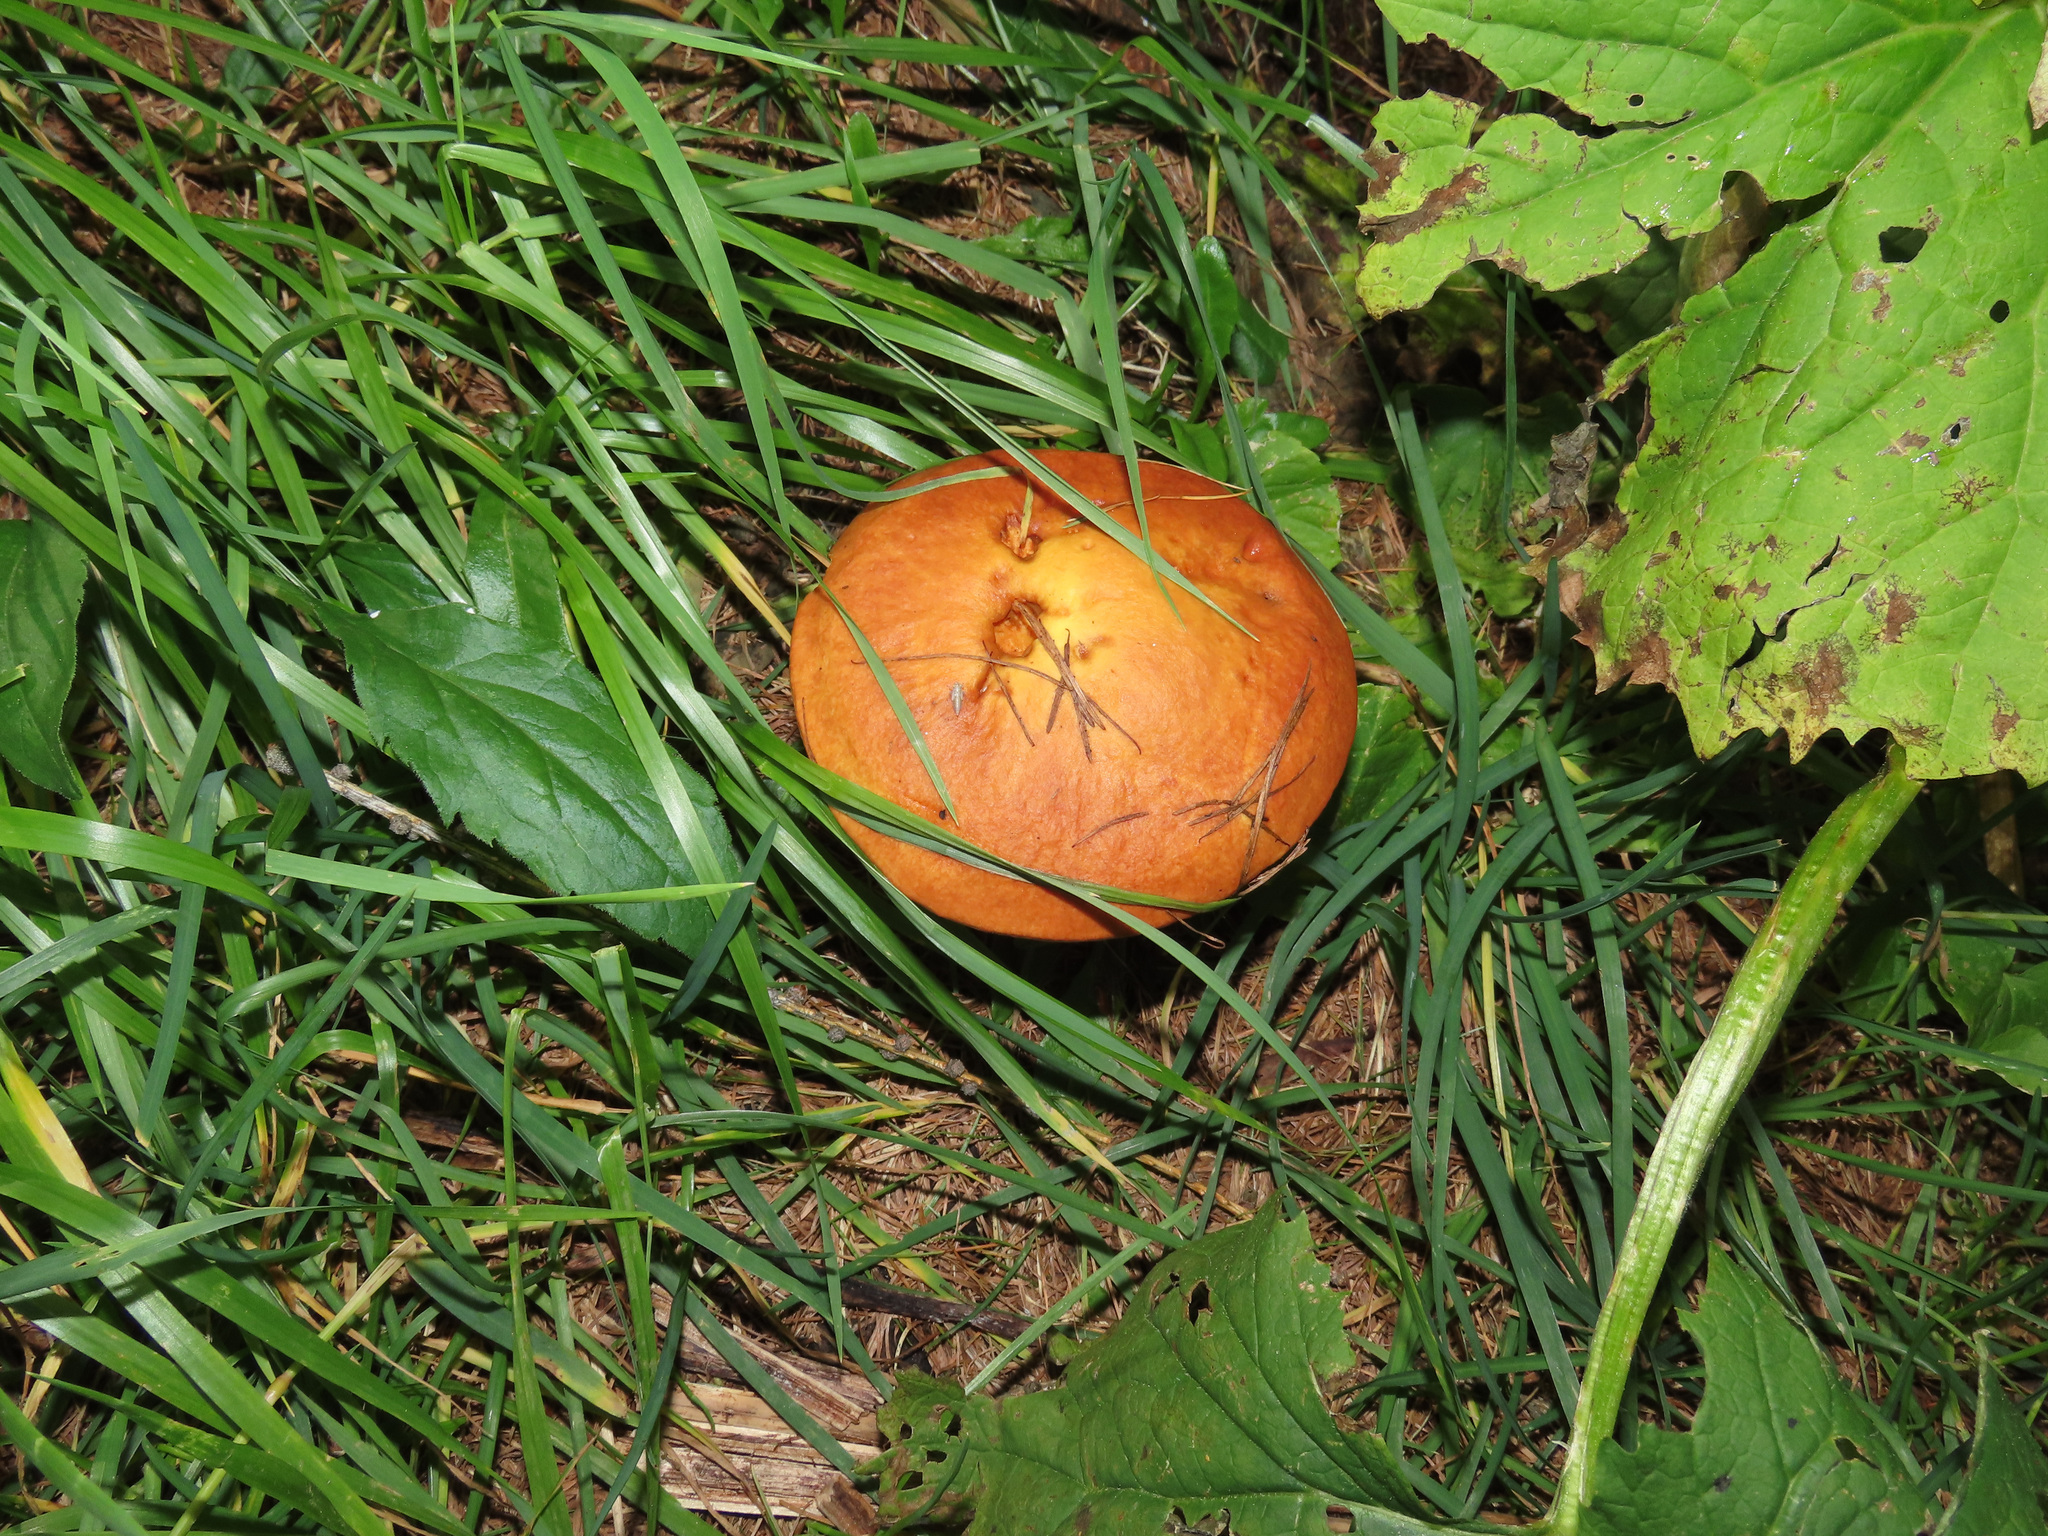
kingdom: Fungi
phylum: Basidiomycota
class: Agaricomycetes
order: Boletales
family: Suillaceae
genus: Suillus
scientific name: Suillus grevillei
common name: Larch bolete
